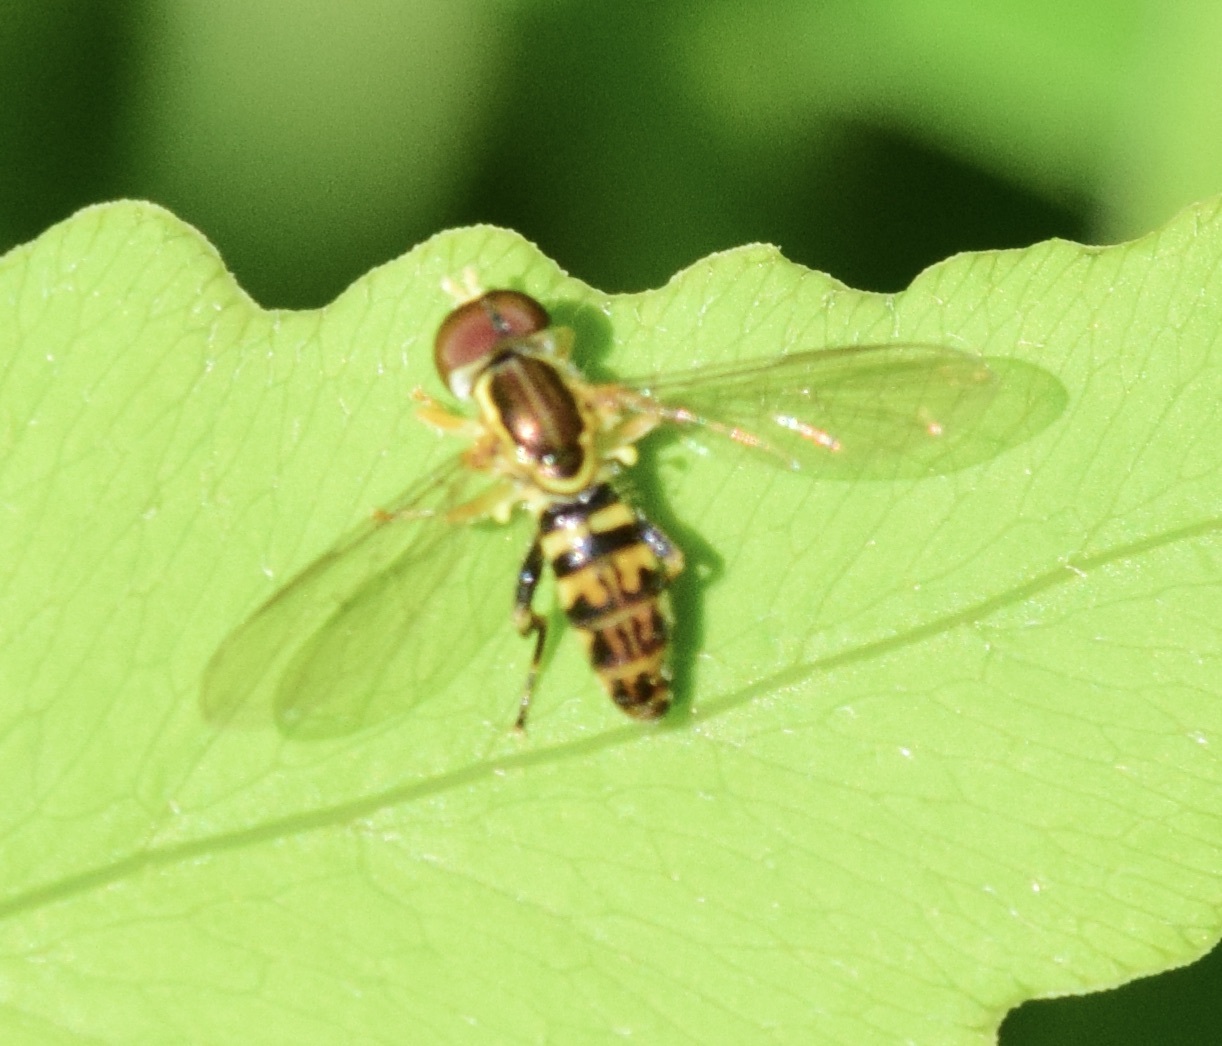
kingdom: Animalia
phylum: Arthropoda
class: Insecta
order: Diptera
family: Syrphidae
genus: Toxomerus
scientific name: Toxomerus geminatus
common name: Eastern calligrapher
